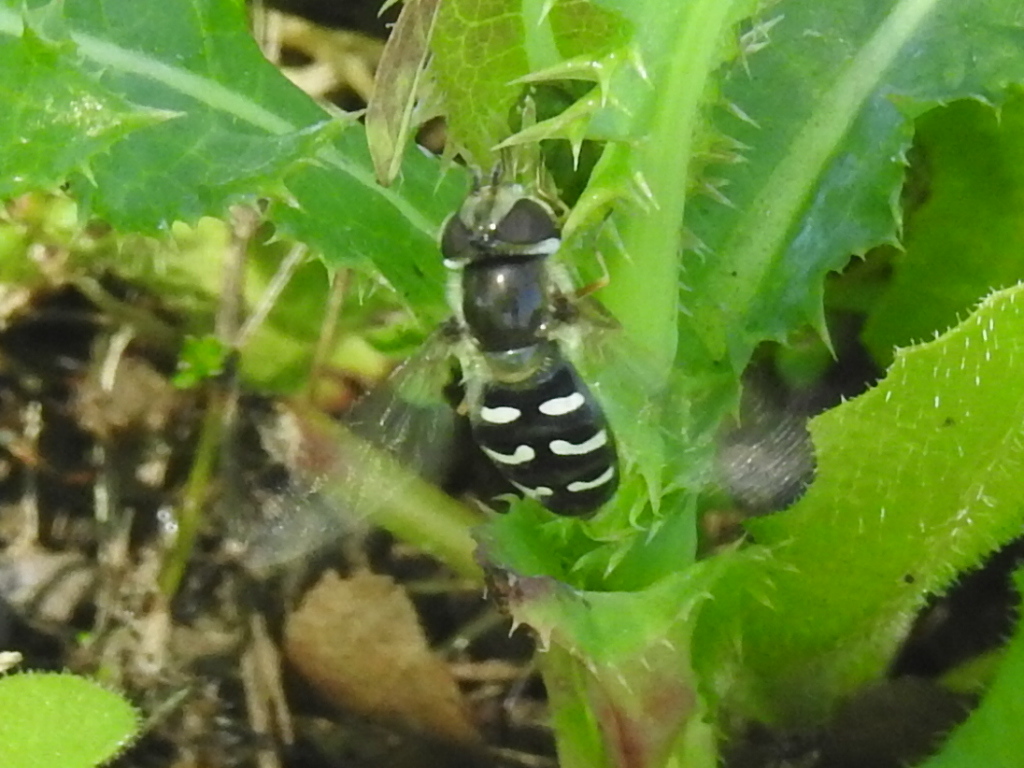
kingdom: Animalia
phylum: Arthropoda
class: Insecta
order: Diptera
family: Syrphidae
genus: Scaeva
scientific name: Scaeva affinis
